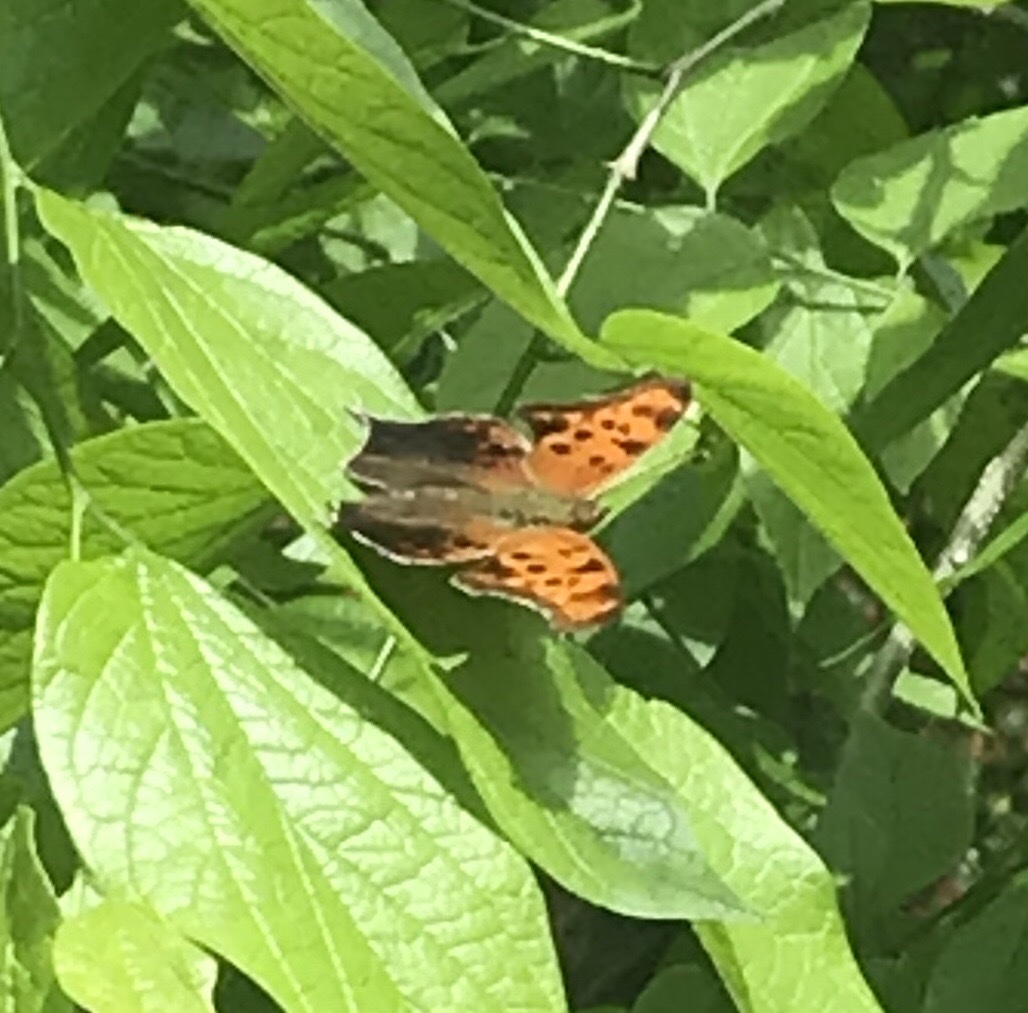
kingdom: Animalia
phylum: Arthropoda
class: Insecta
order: Lepidoptera
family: Nymphalidae
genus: Polygonia
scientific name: Polygonia interrogationis
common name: Question mark
